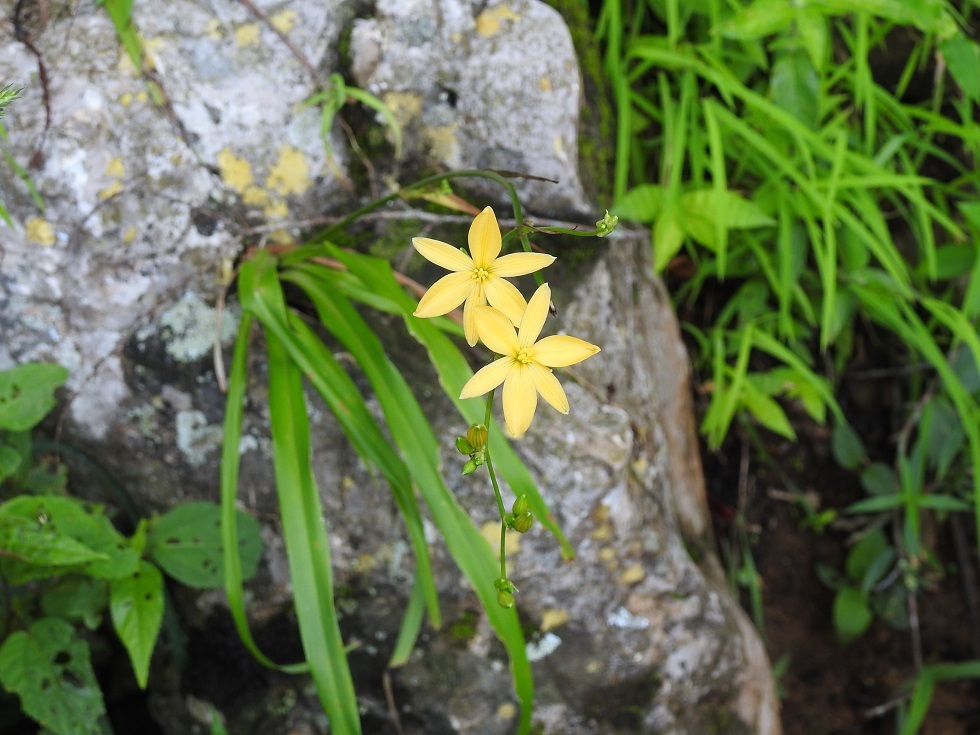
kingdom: Plantae
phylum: Tracheophyta
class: Liliopsida
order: Asparagales
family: Asparagaceae
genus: Echeandia
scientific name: Echeandia breedlovei
